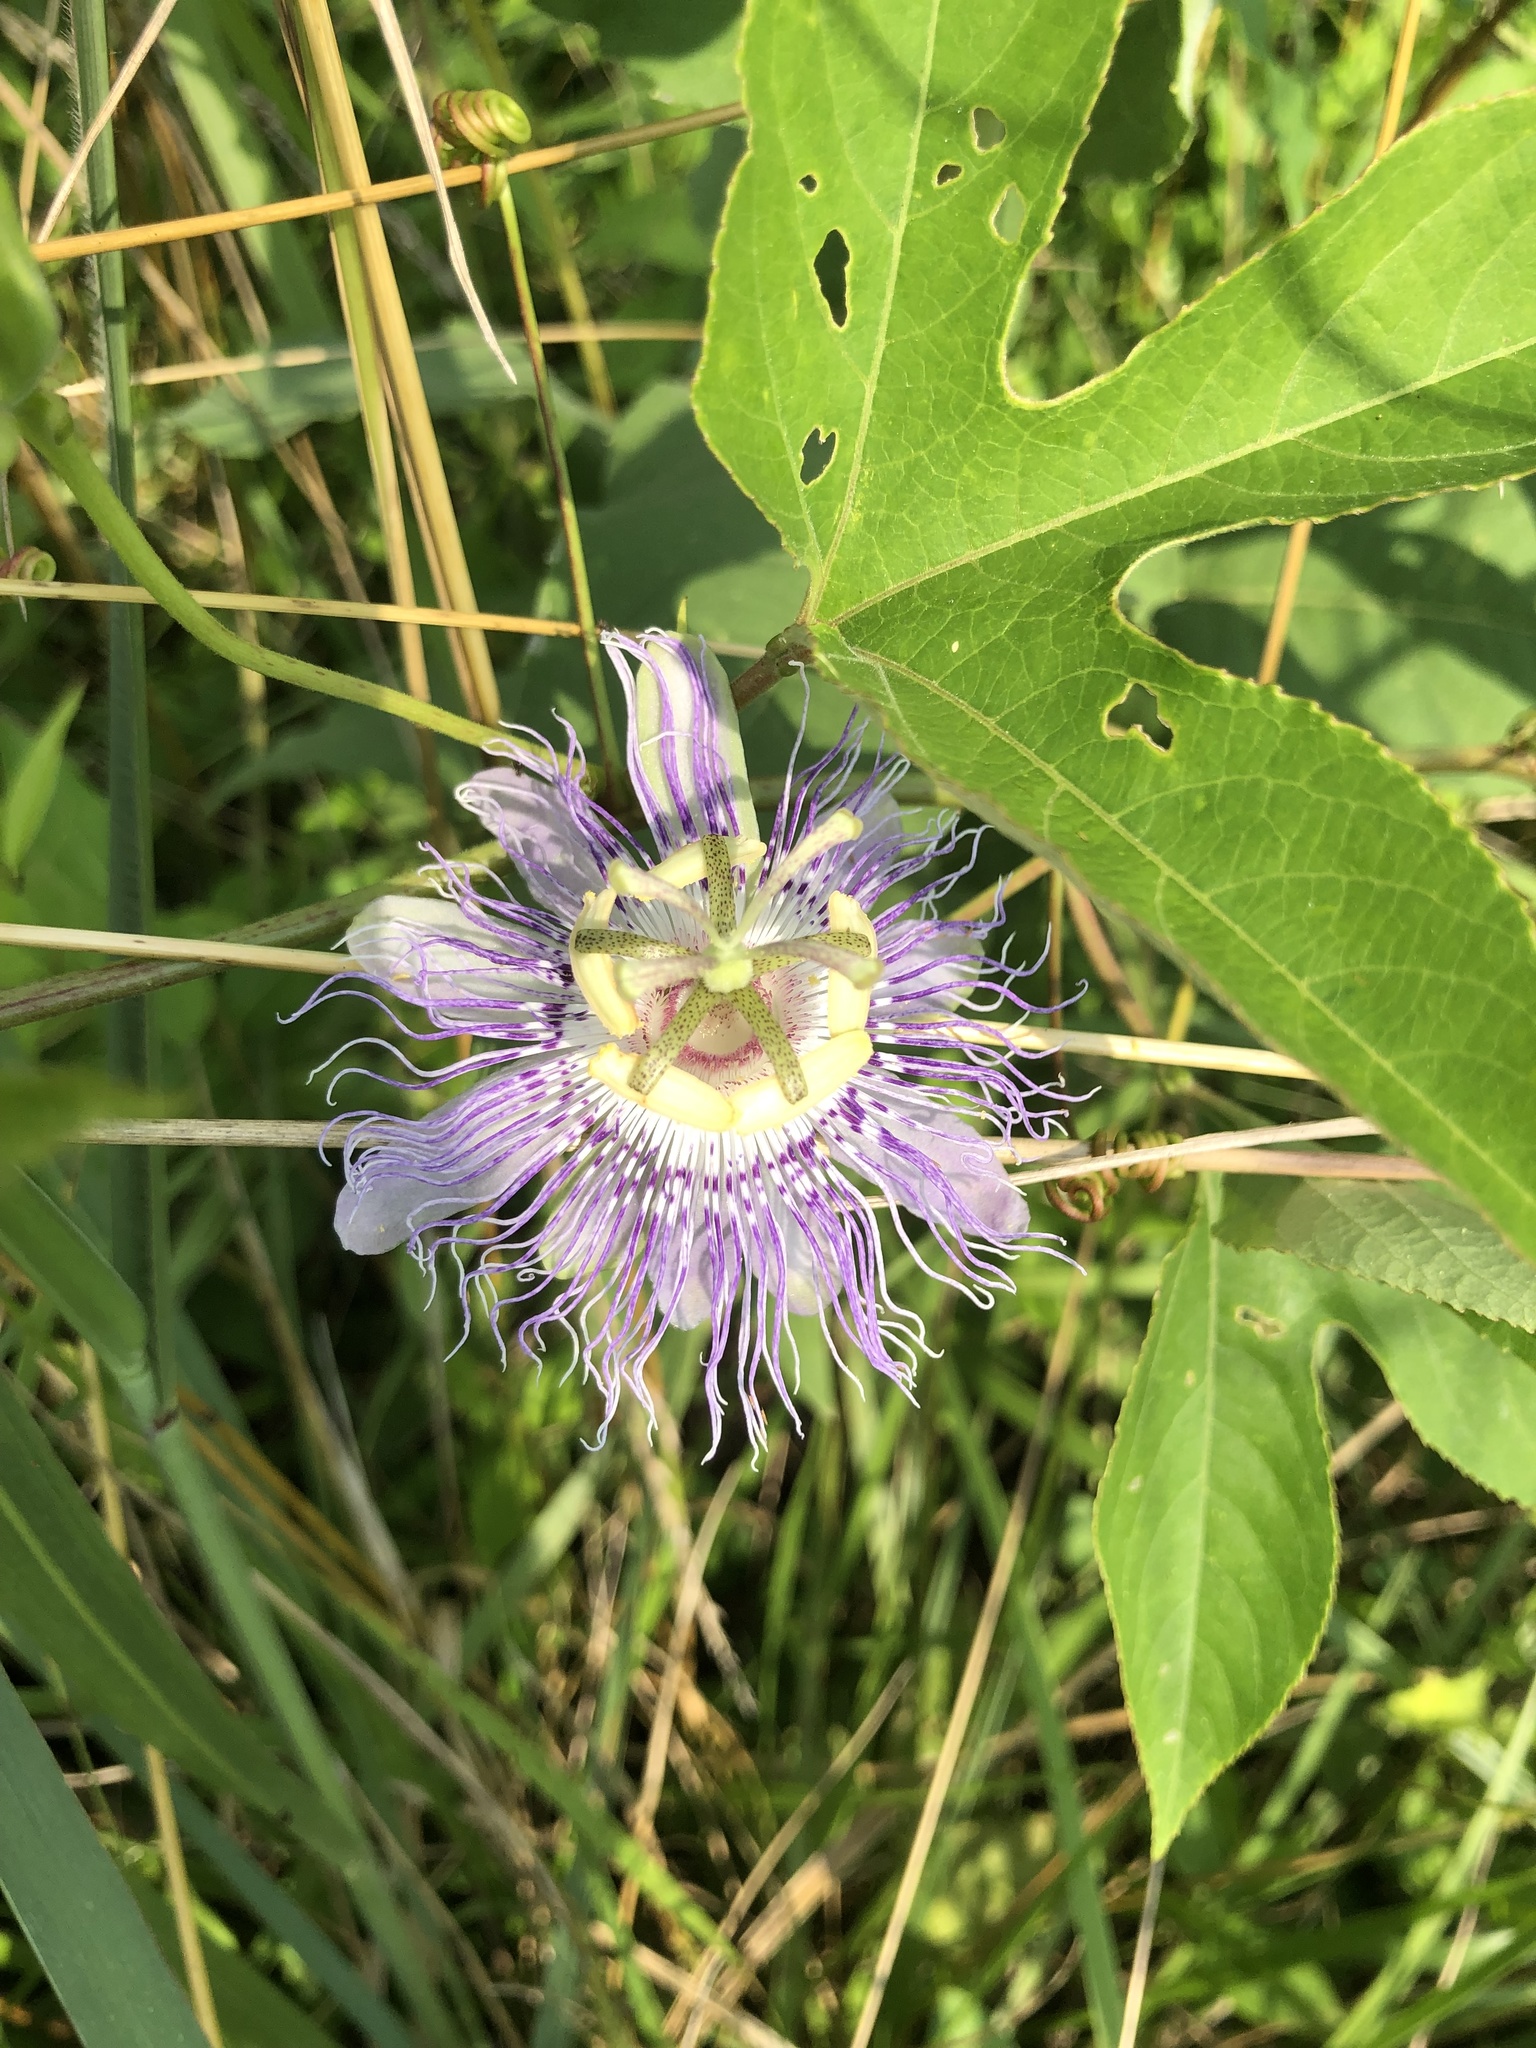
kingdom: Plantae
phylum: Tracheophyta
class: Magnoliopsida
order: Malpighiales
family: Passifloraceae
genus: Passiflora
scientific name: Passiflora incarnata
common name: Apricot-vine
